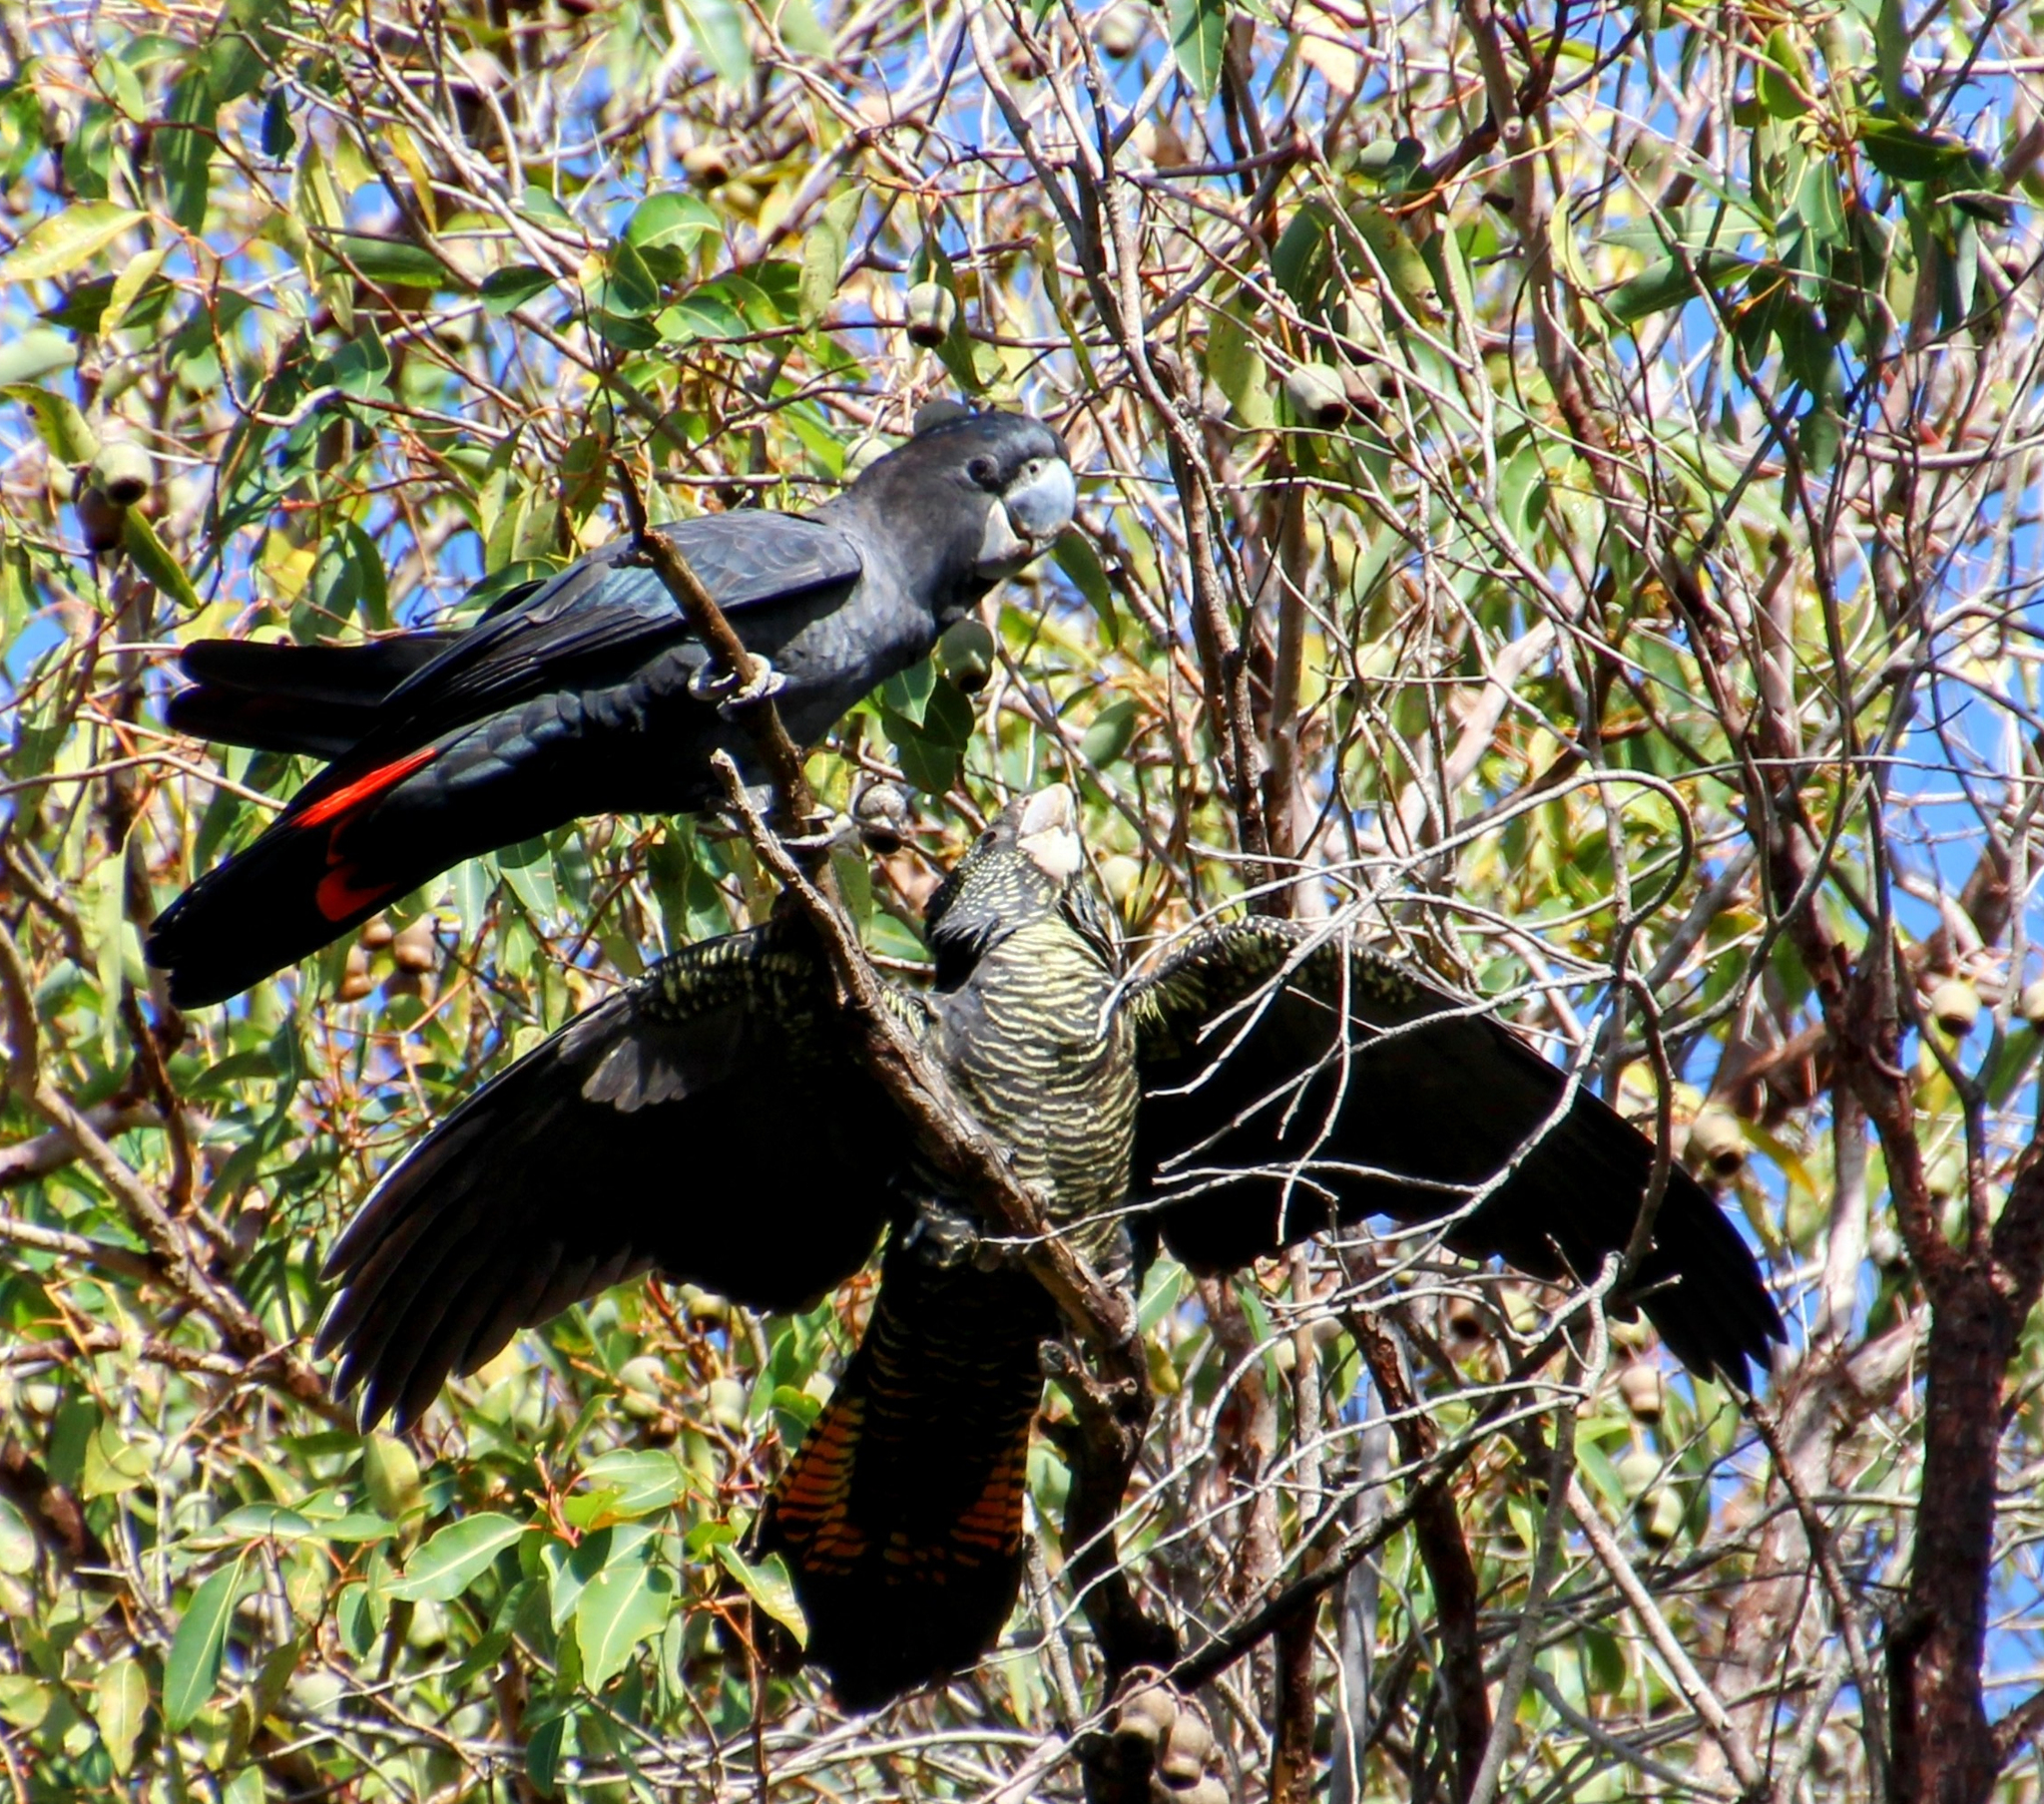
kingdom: Animalia
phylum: Chordata
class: Aves
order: Psittaciformes
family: Psittacidae
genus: Calyptorhynchus
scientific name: Calyptorhynchus banksii
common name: Red-tailed black cockatoo
